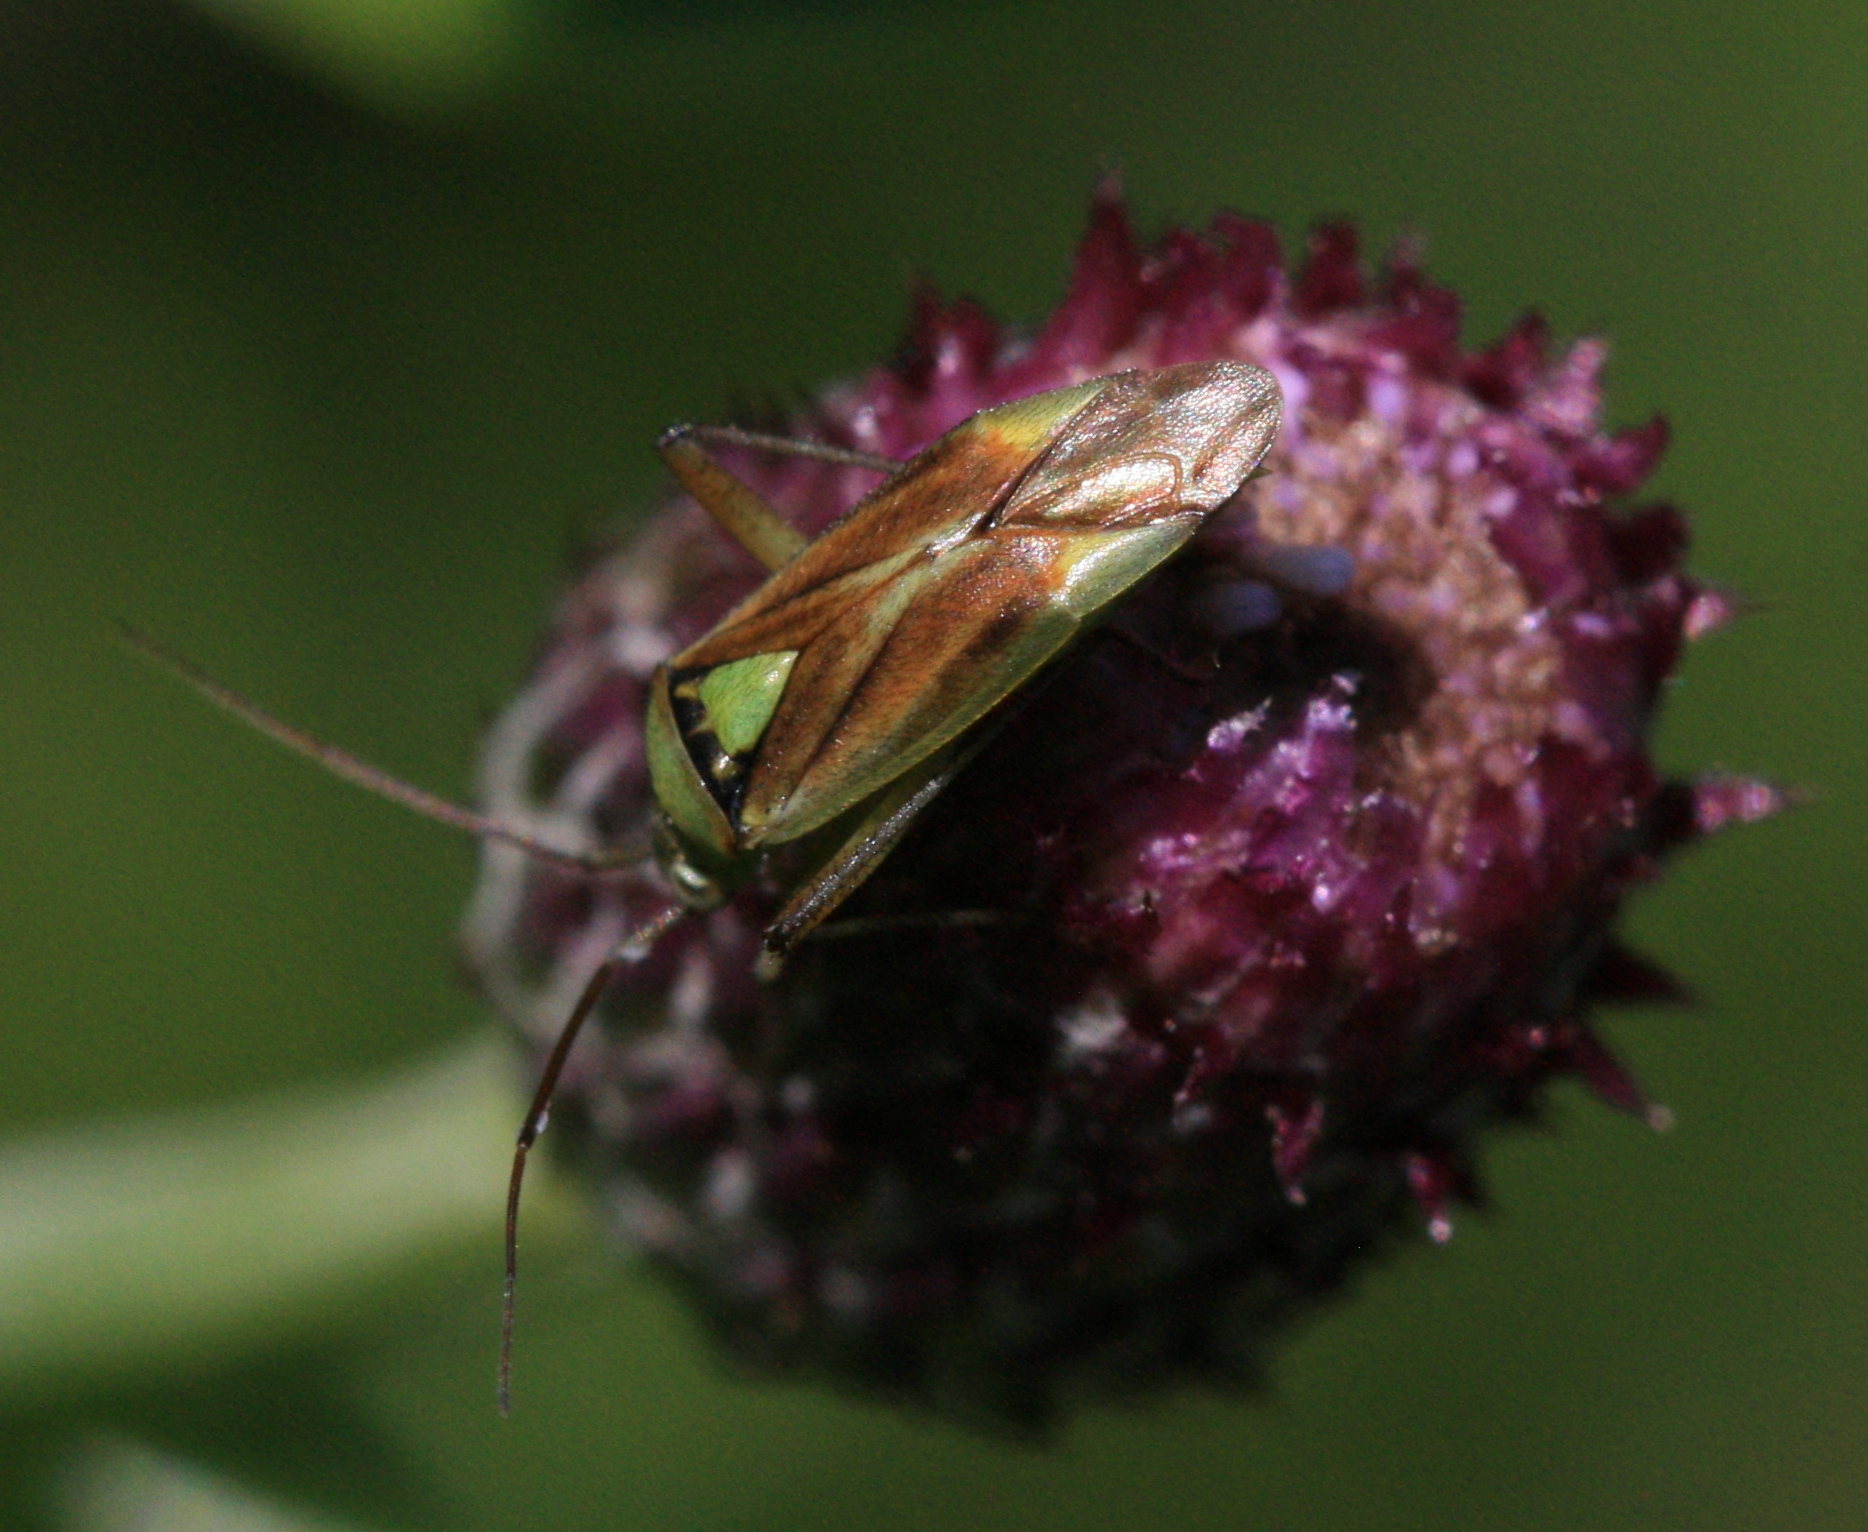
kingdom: Animalia
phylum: Arthropoda
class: Insecta
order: Hemiptera
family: Miridae
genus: Closterotomus
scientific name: Closterotomus norvegicus
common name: Plant bug
